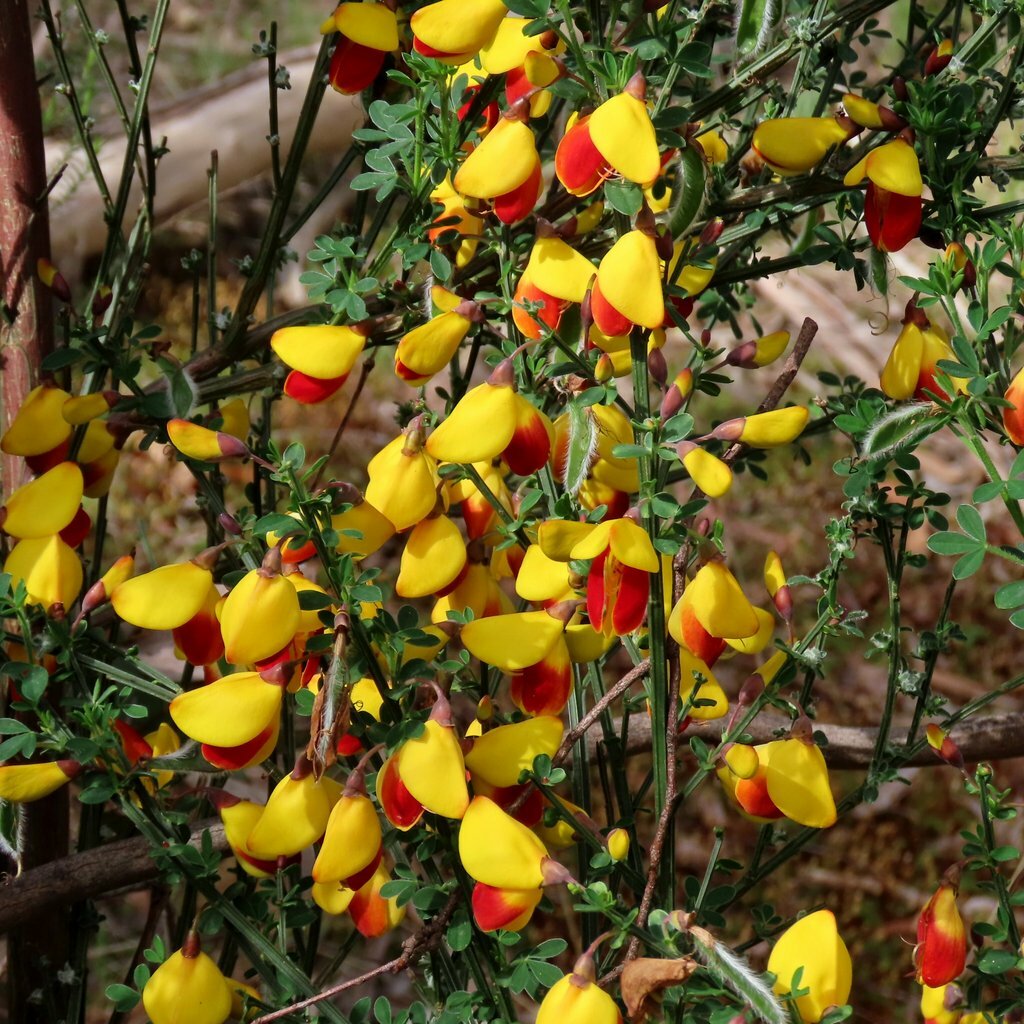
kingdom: Plantae
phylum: Tracheophyta
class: Magnoliopsida
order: Fabales
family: Fabaceae
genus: Cytisus
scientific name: Cytisus scoparius
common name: Scotch broom
